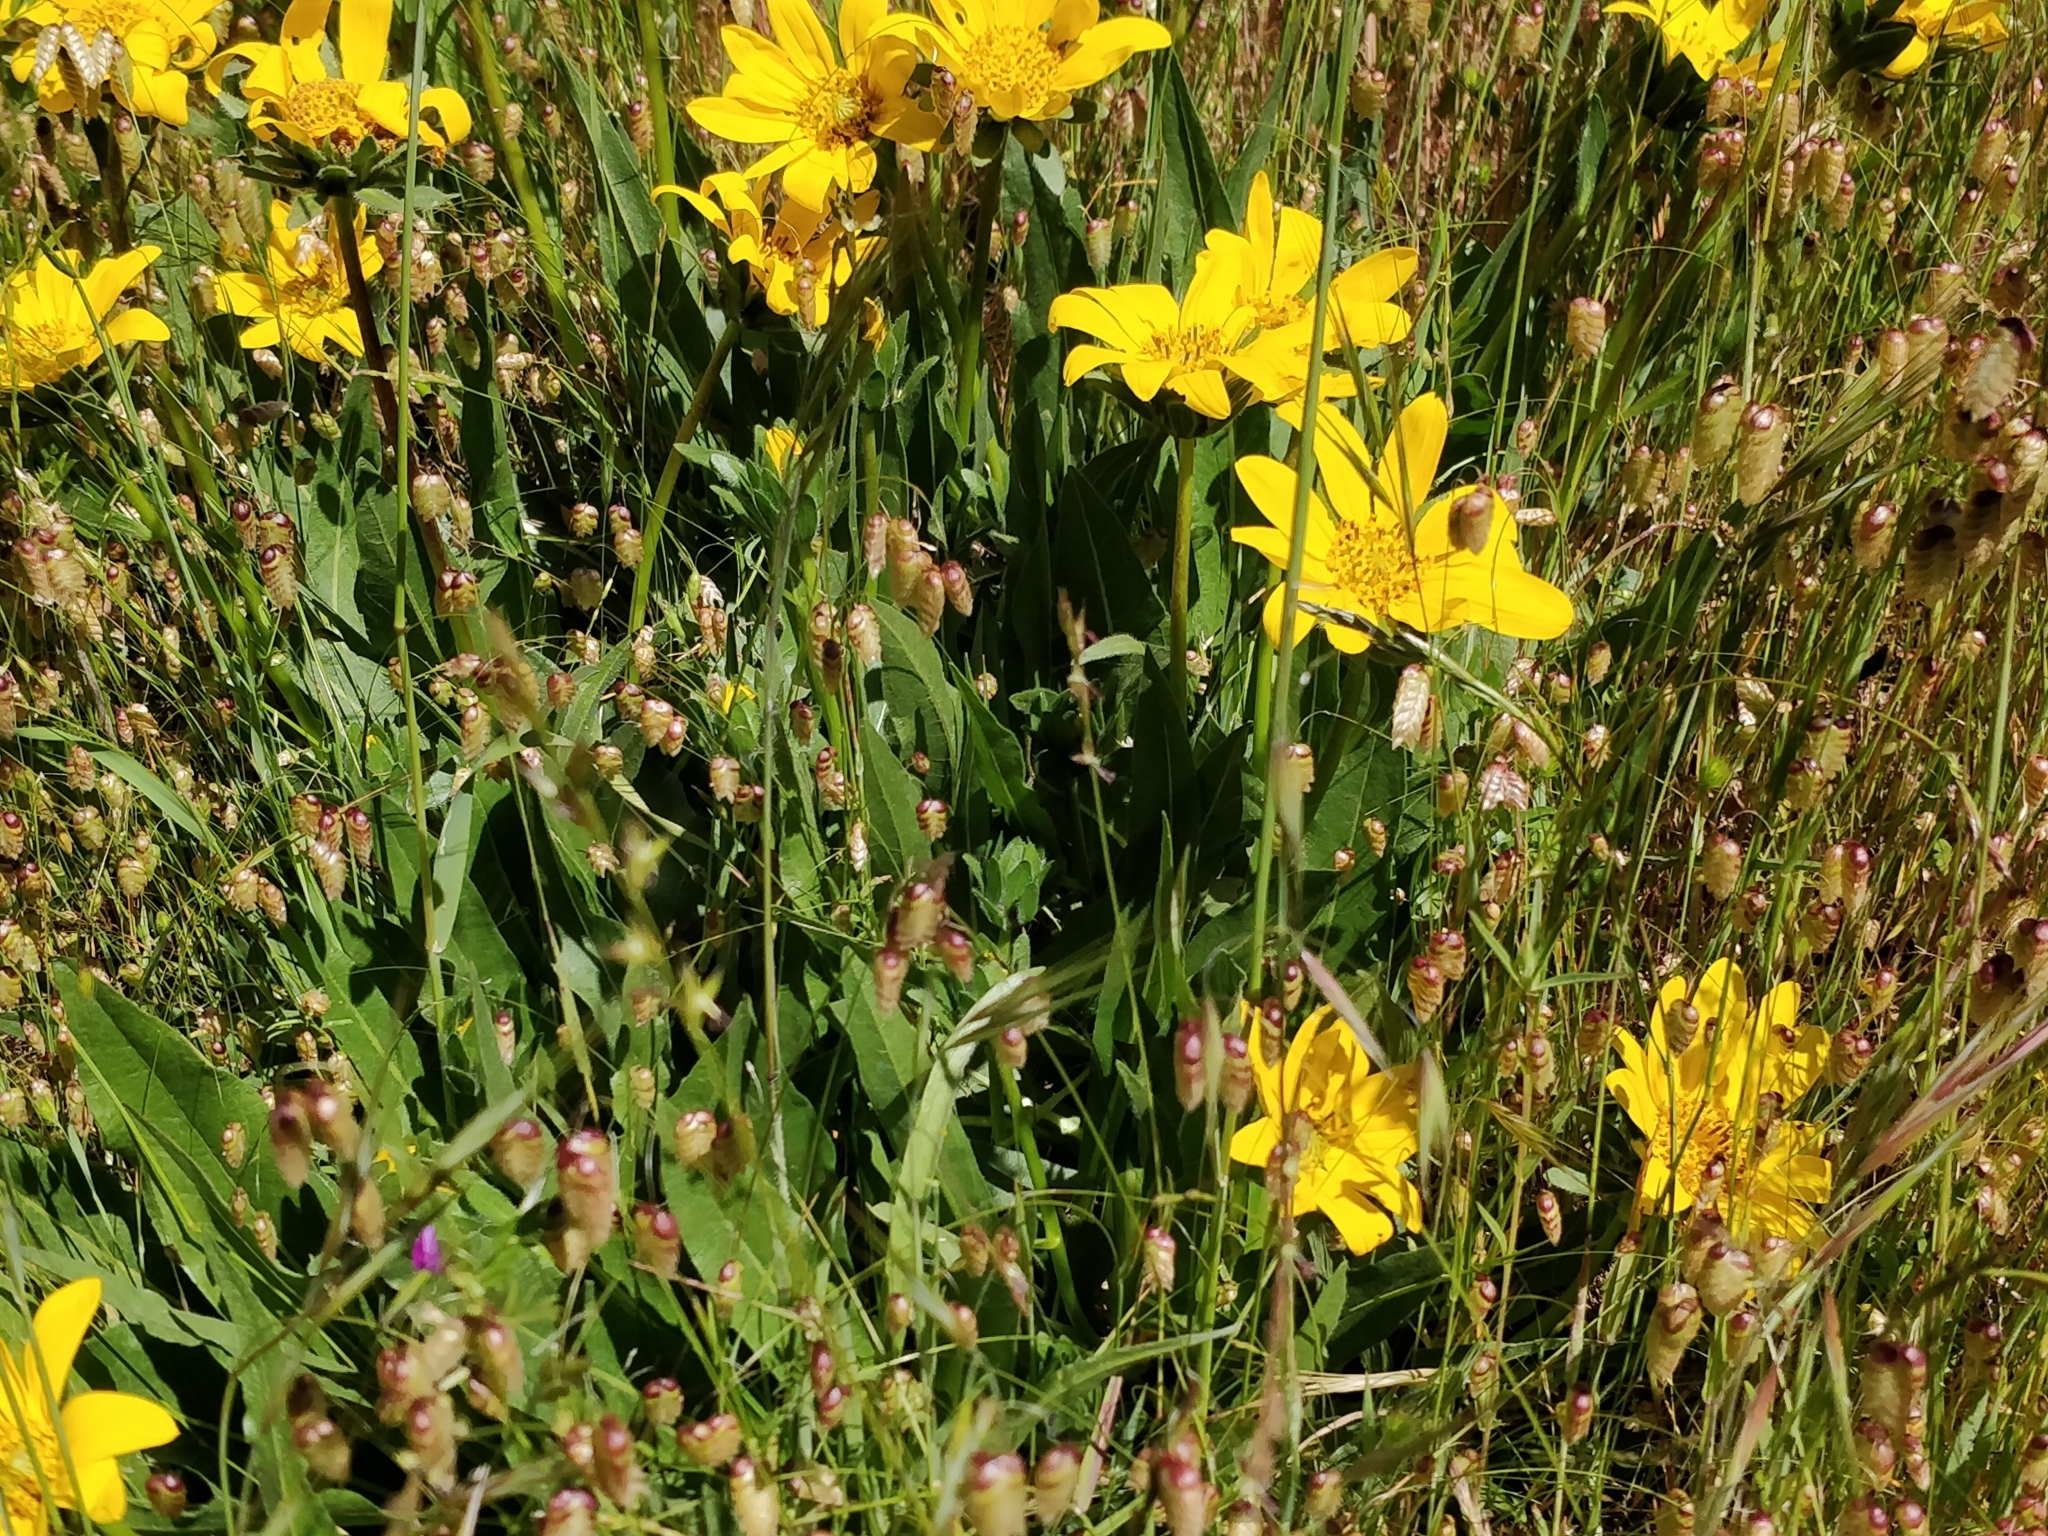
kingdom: Plantae
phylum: Tracheophyta
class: Magnoliopsida
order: Asterales
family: Asteraceae
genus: Wyethia
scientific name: Wyethia angustifolia
